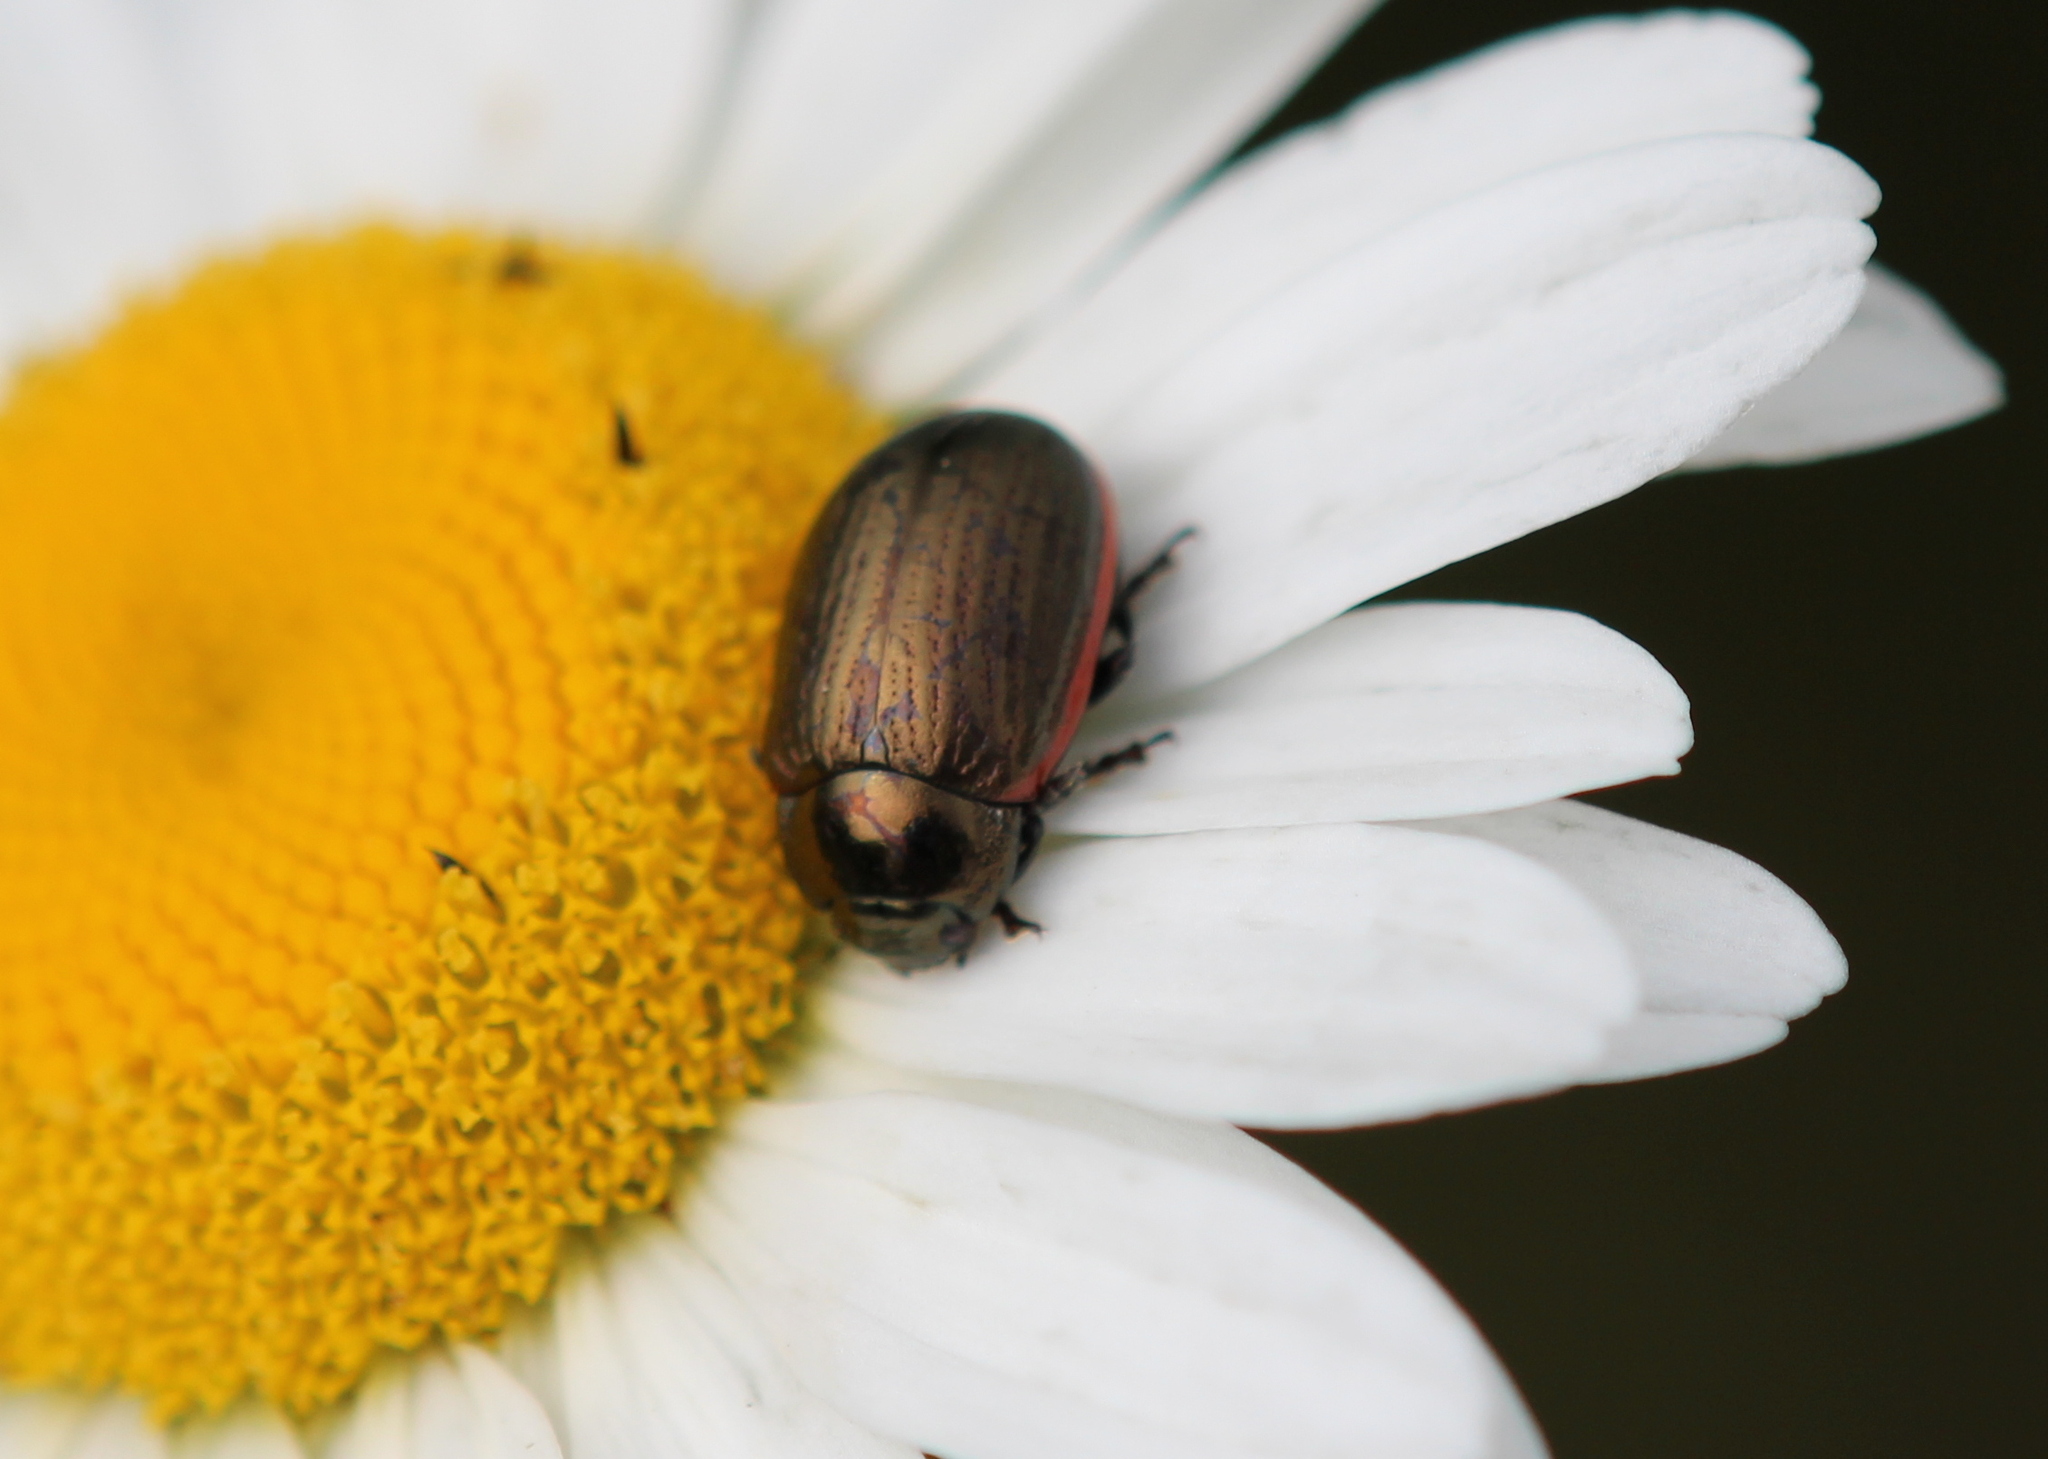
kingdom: Animalia
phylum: Arthropoda
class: Insecta
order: Coleoptera
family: Chrysomelidae
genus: Chrysolina
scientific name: Chrysolina marginata
